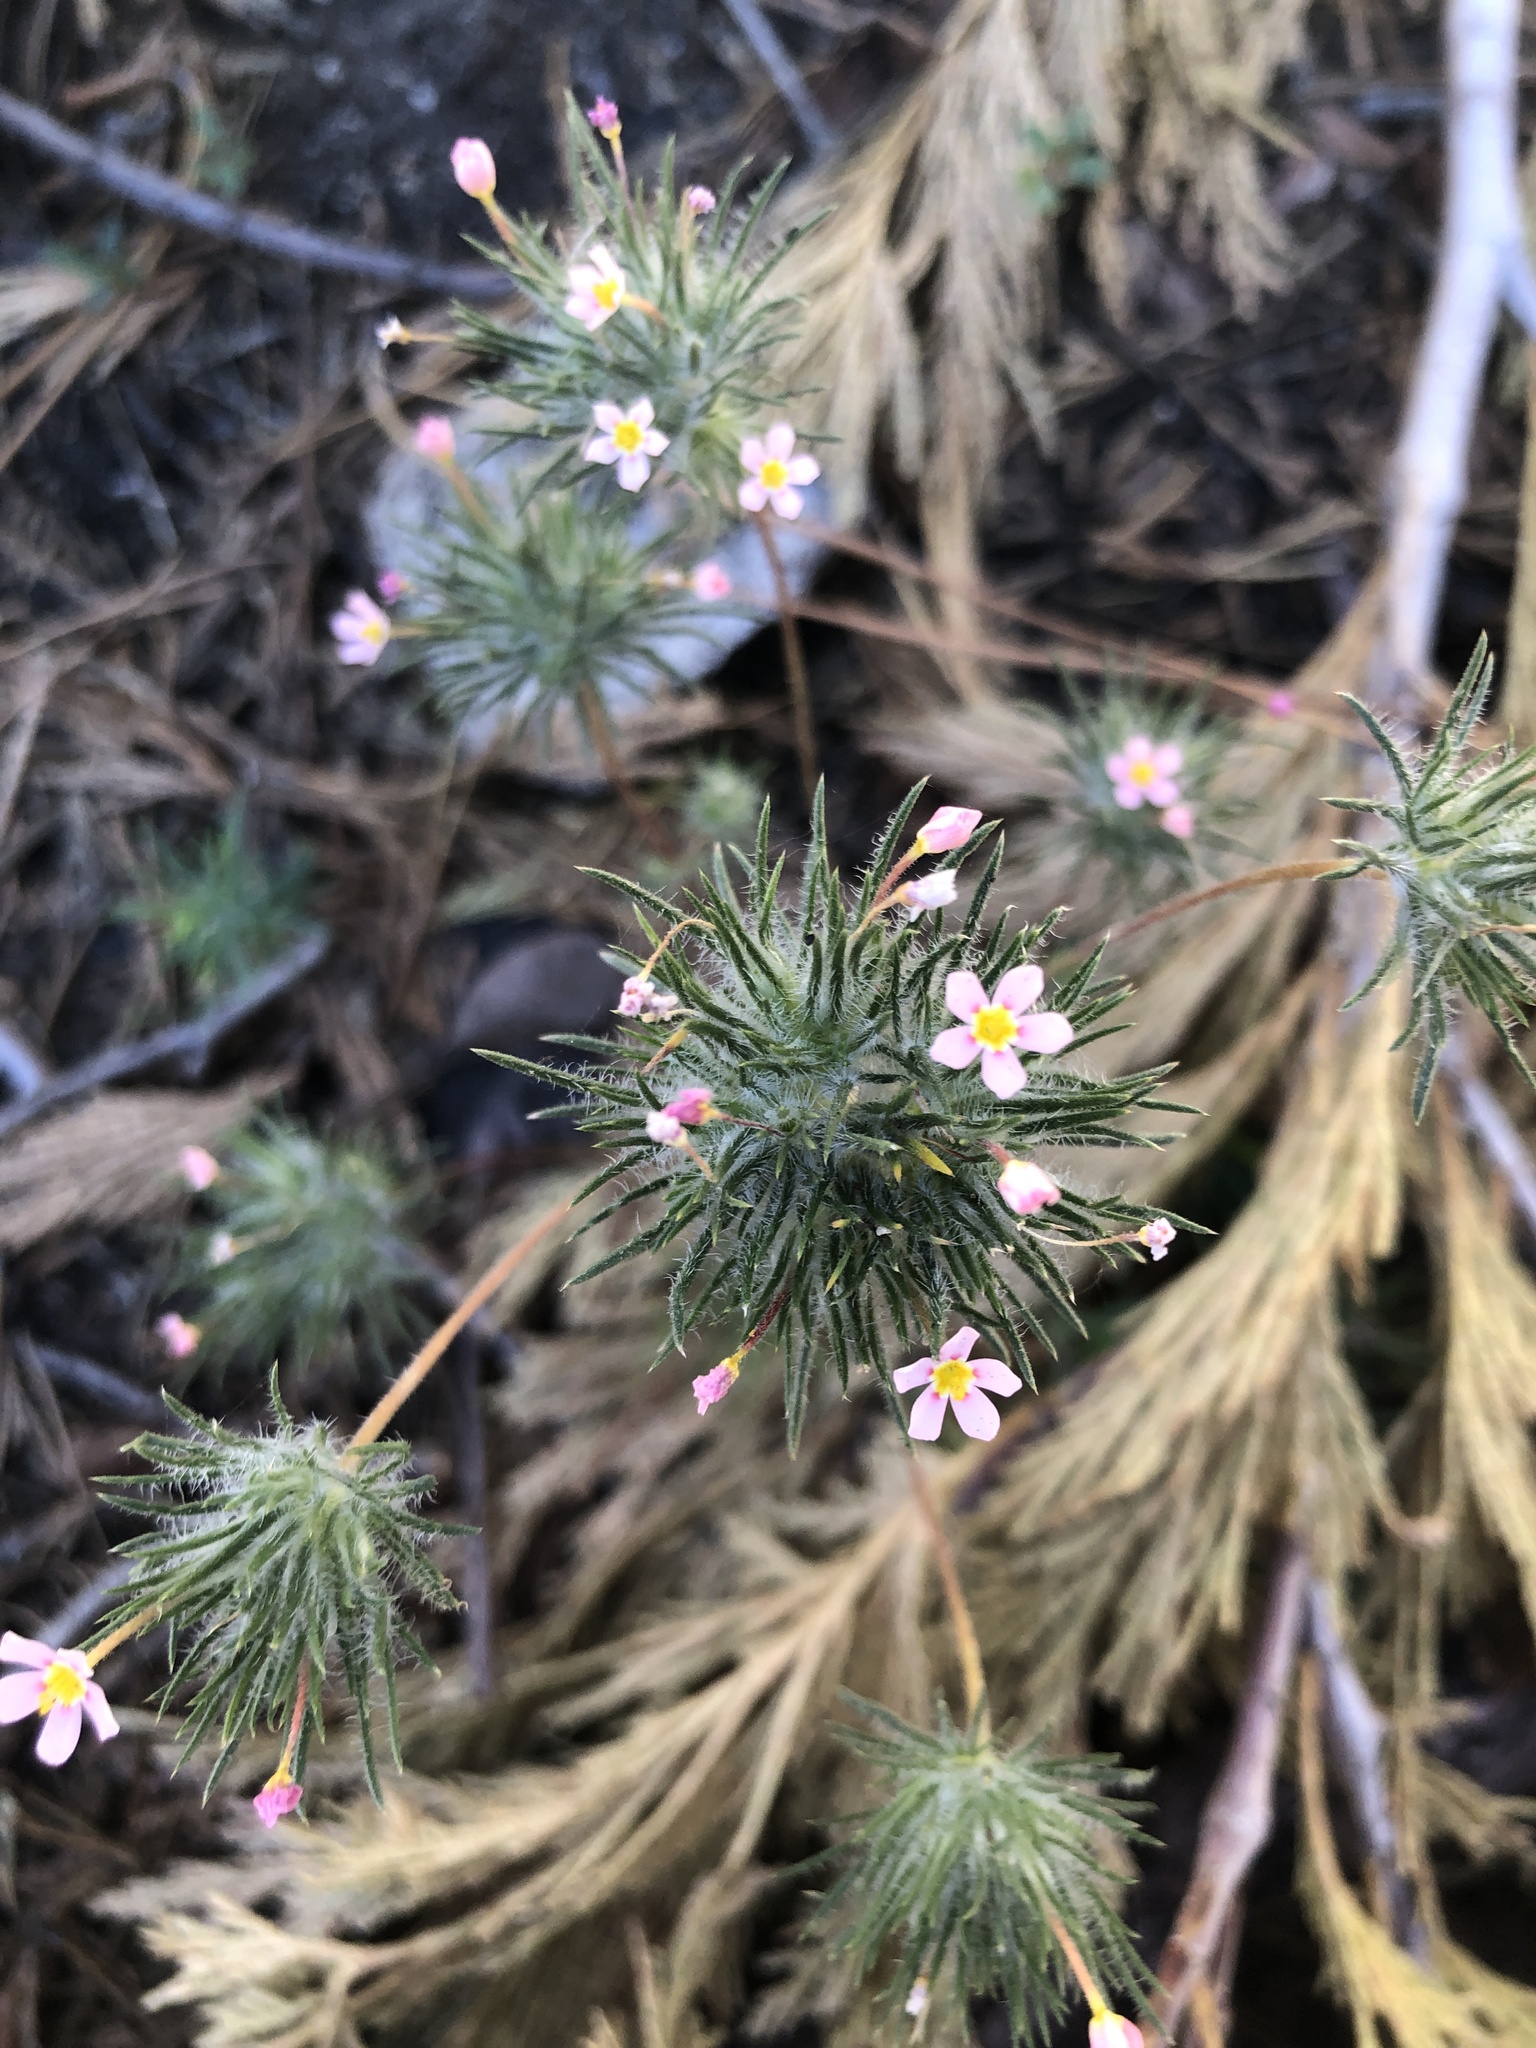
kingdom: Plantae
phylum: Tracheophyta
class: Magnoliopsida
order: Ericales
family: Polemoniaceae
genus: Leptosiphon
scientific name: Leptosiphon ciliatus
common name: Whiskerbrush
